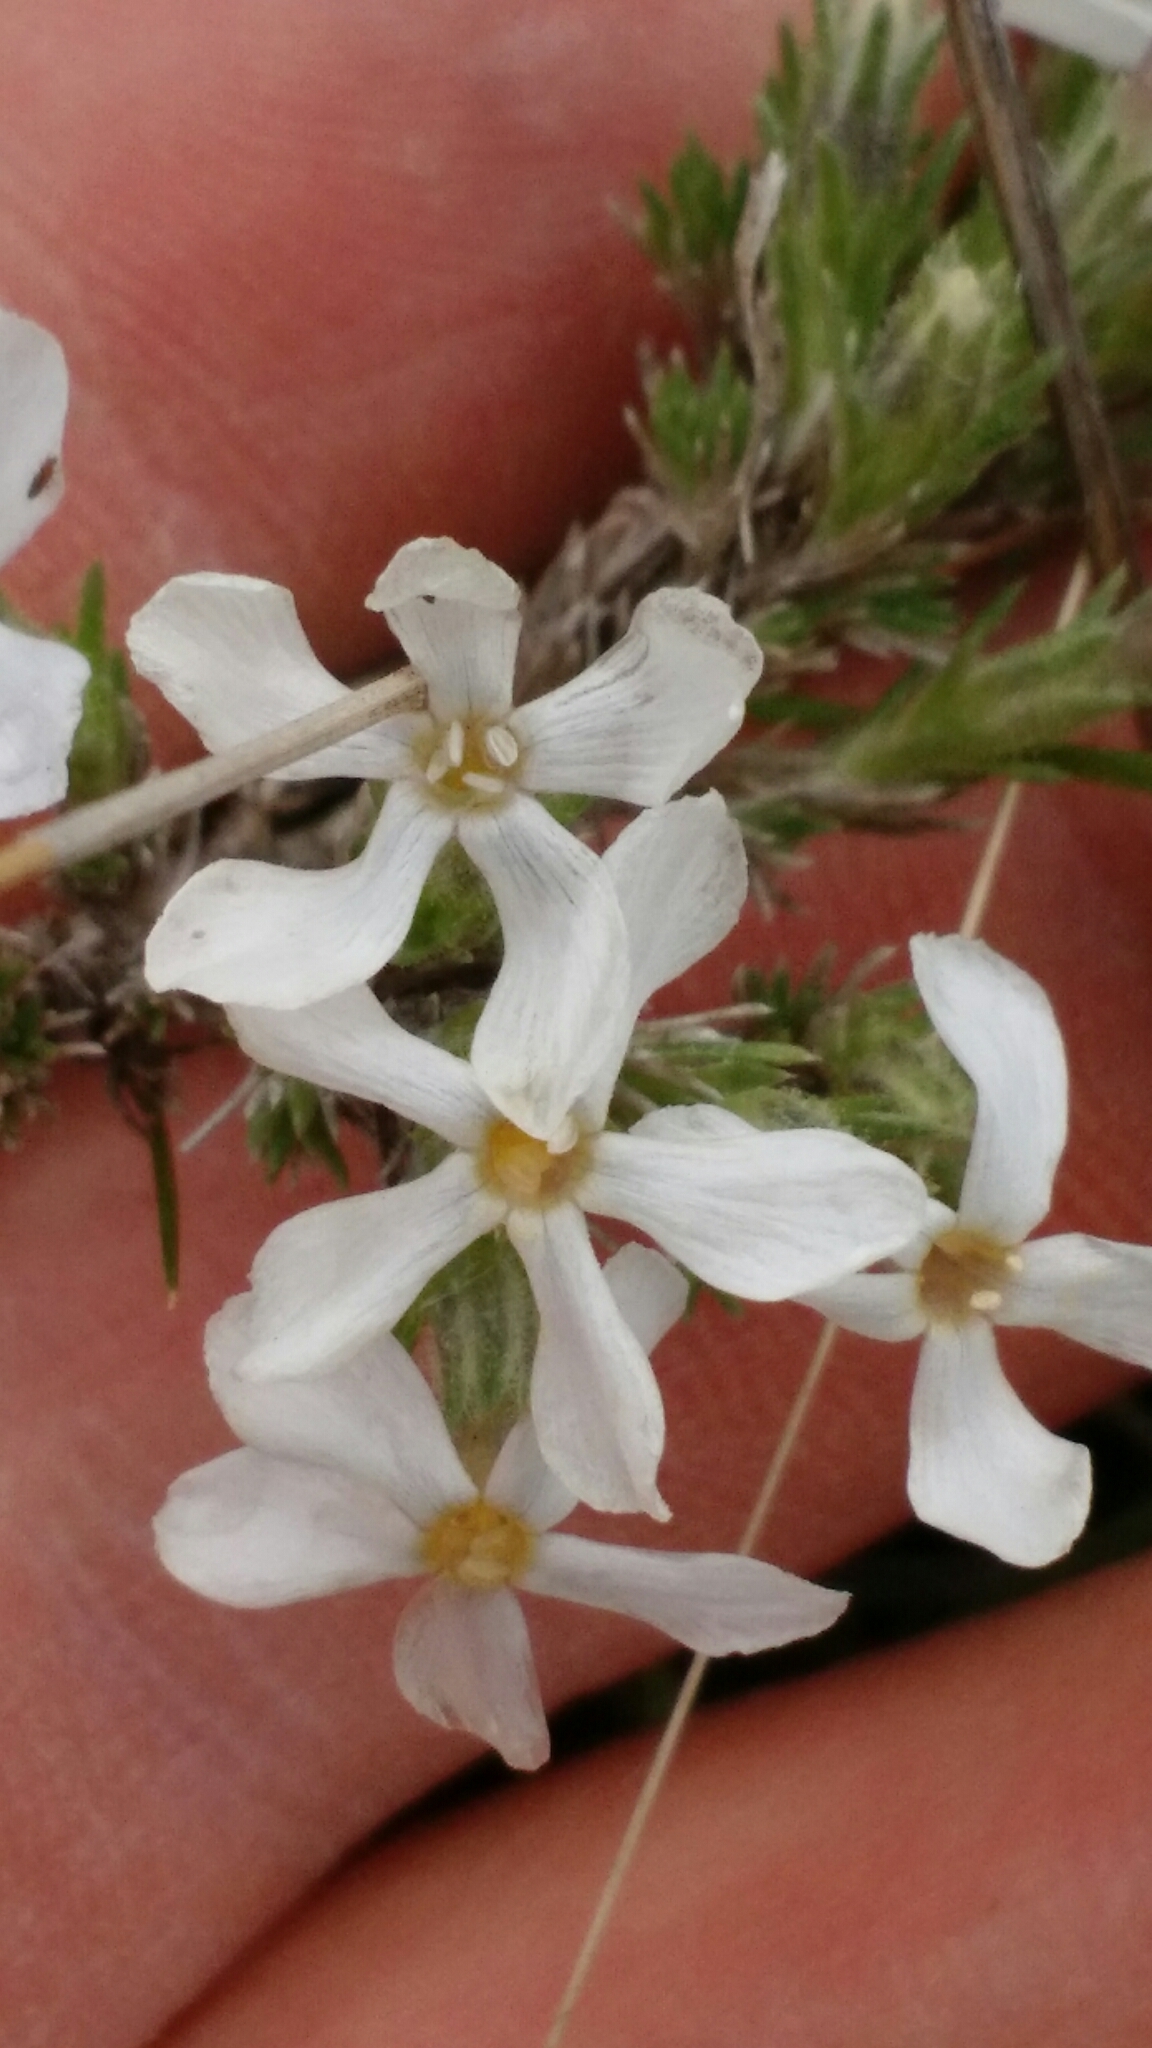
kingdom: Plantae
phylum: Tracheophyta
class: Magnoliopsida
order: Ericales
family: Polemoniaceae
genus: Phlox
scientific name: Phlox hoodii
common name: Moss phlox
